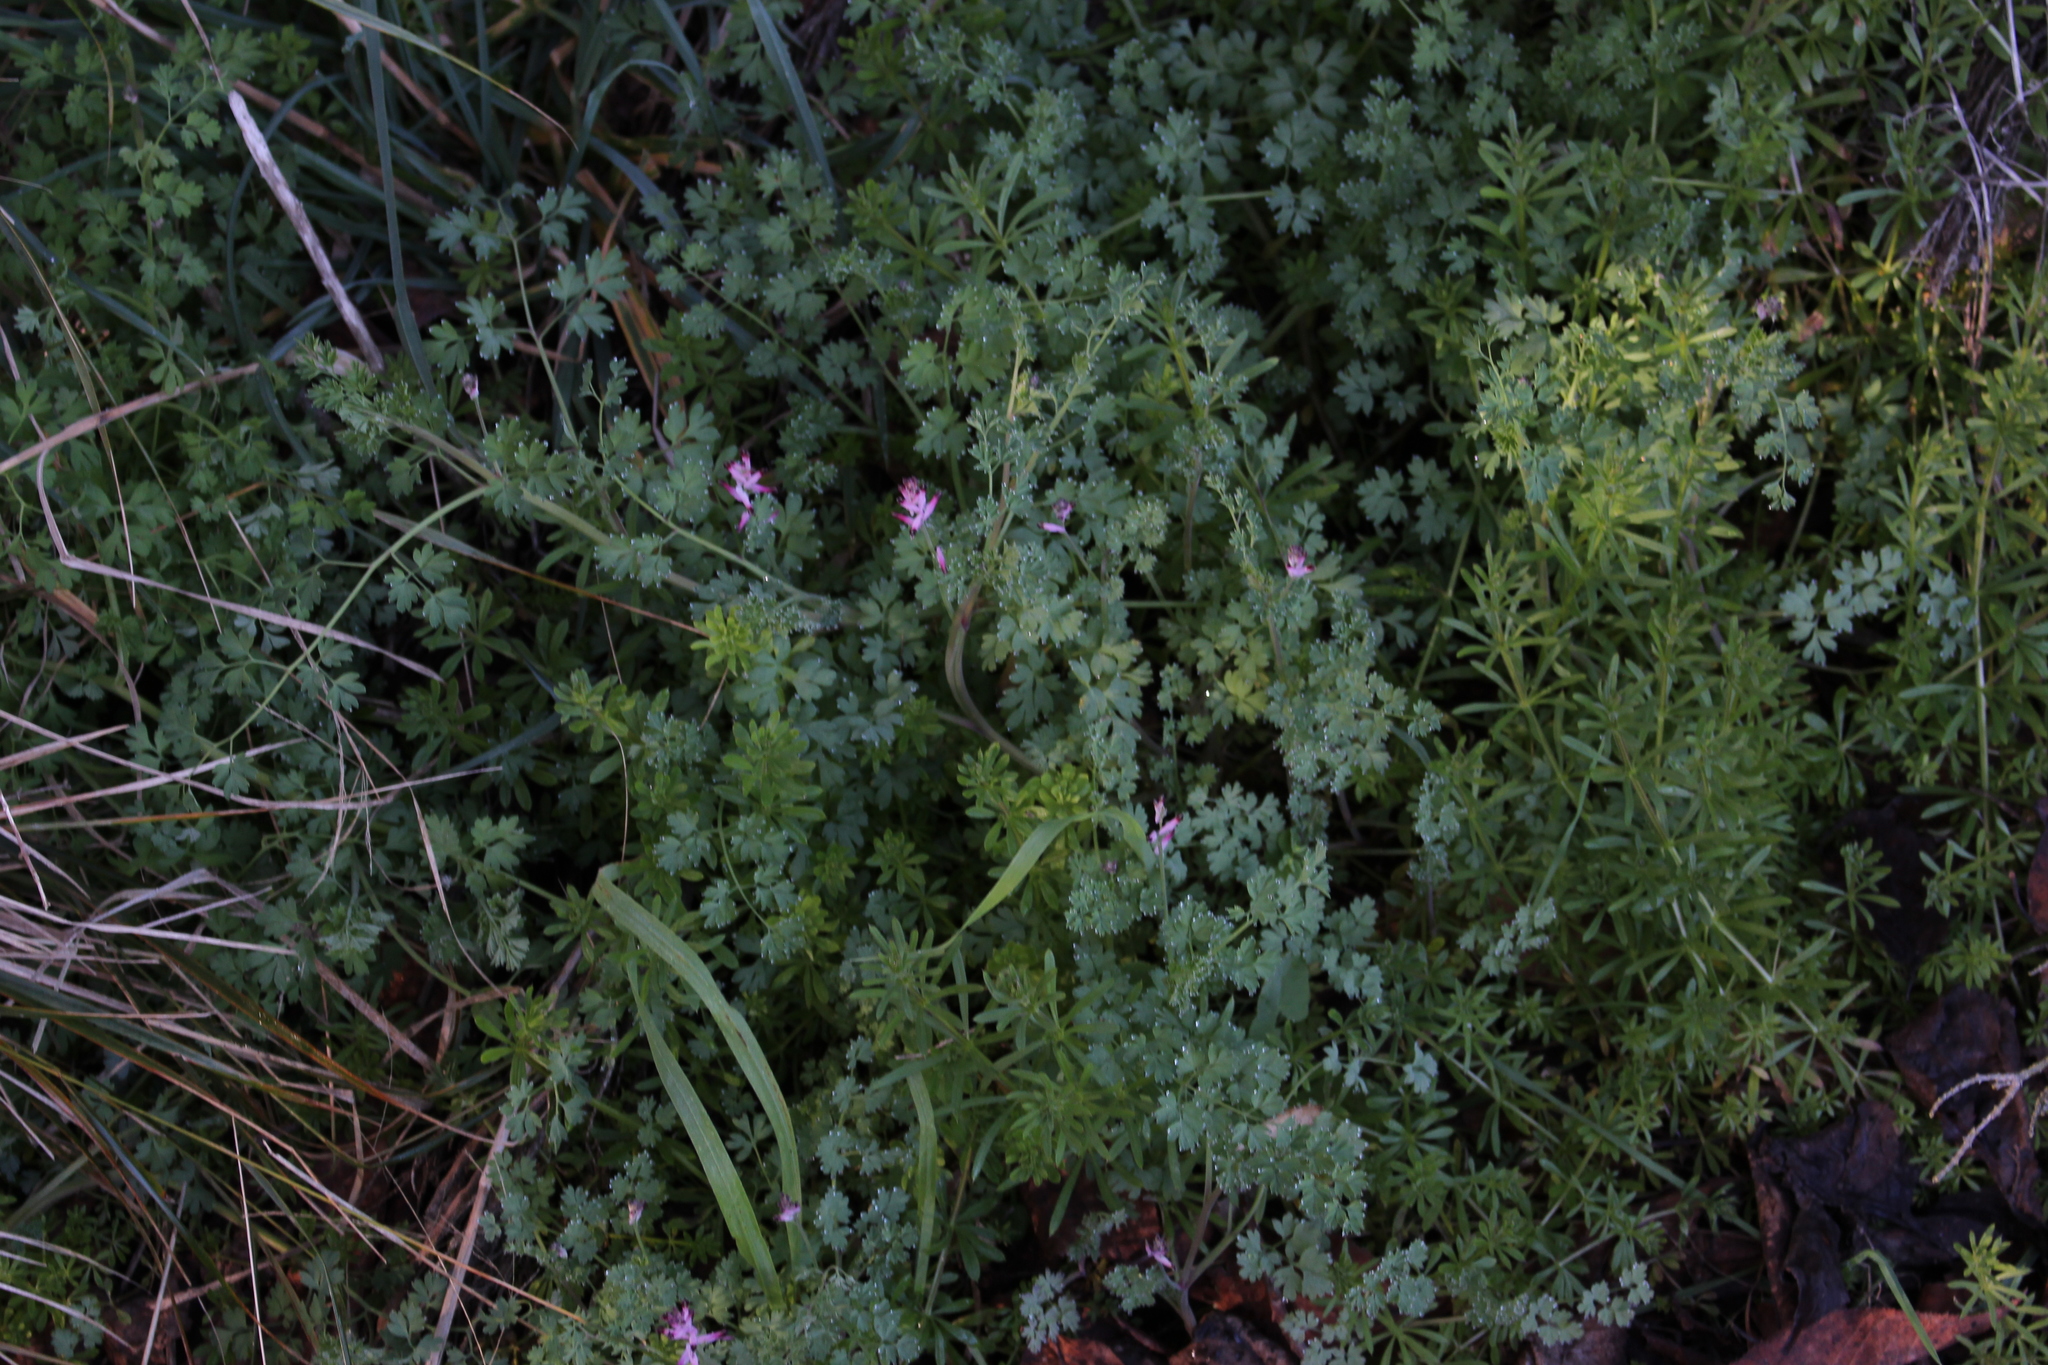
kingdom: Plantae
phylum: Tracheophyta
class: Magnoliopsida
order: Ranunculales
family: Papaveraceae
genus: Fumaria
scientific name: Fumaria muralis
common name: Common ramping-fumitory
